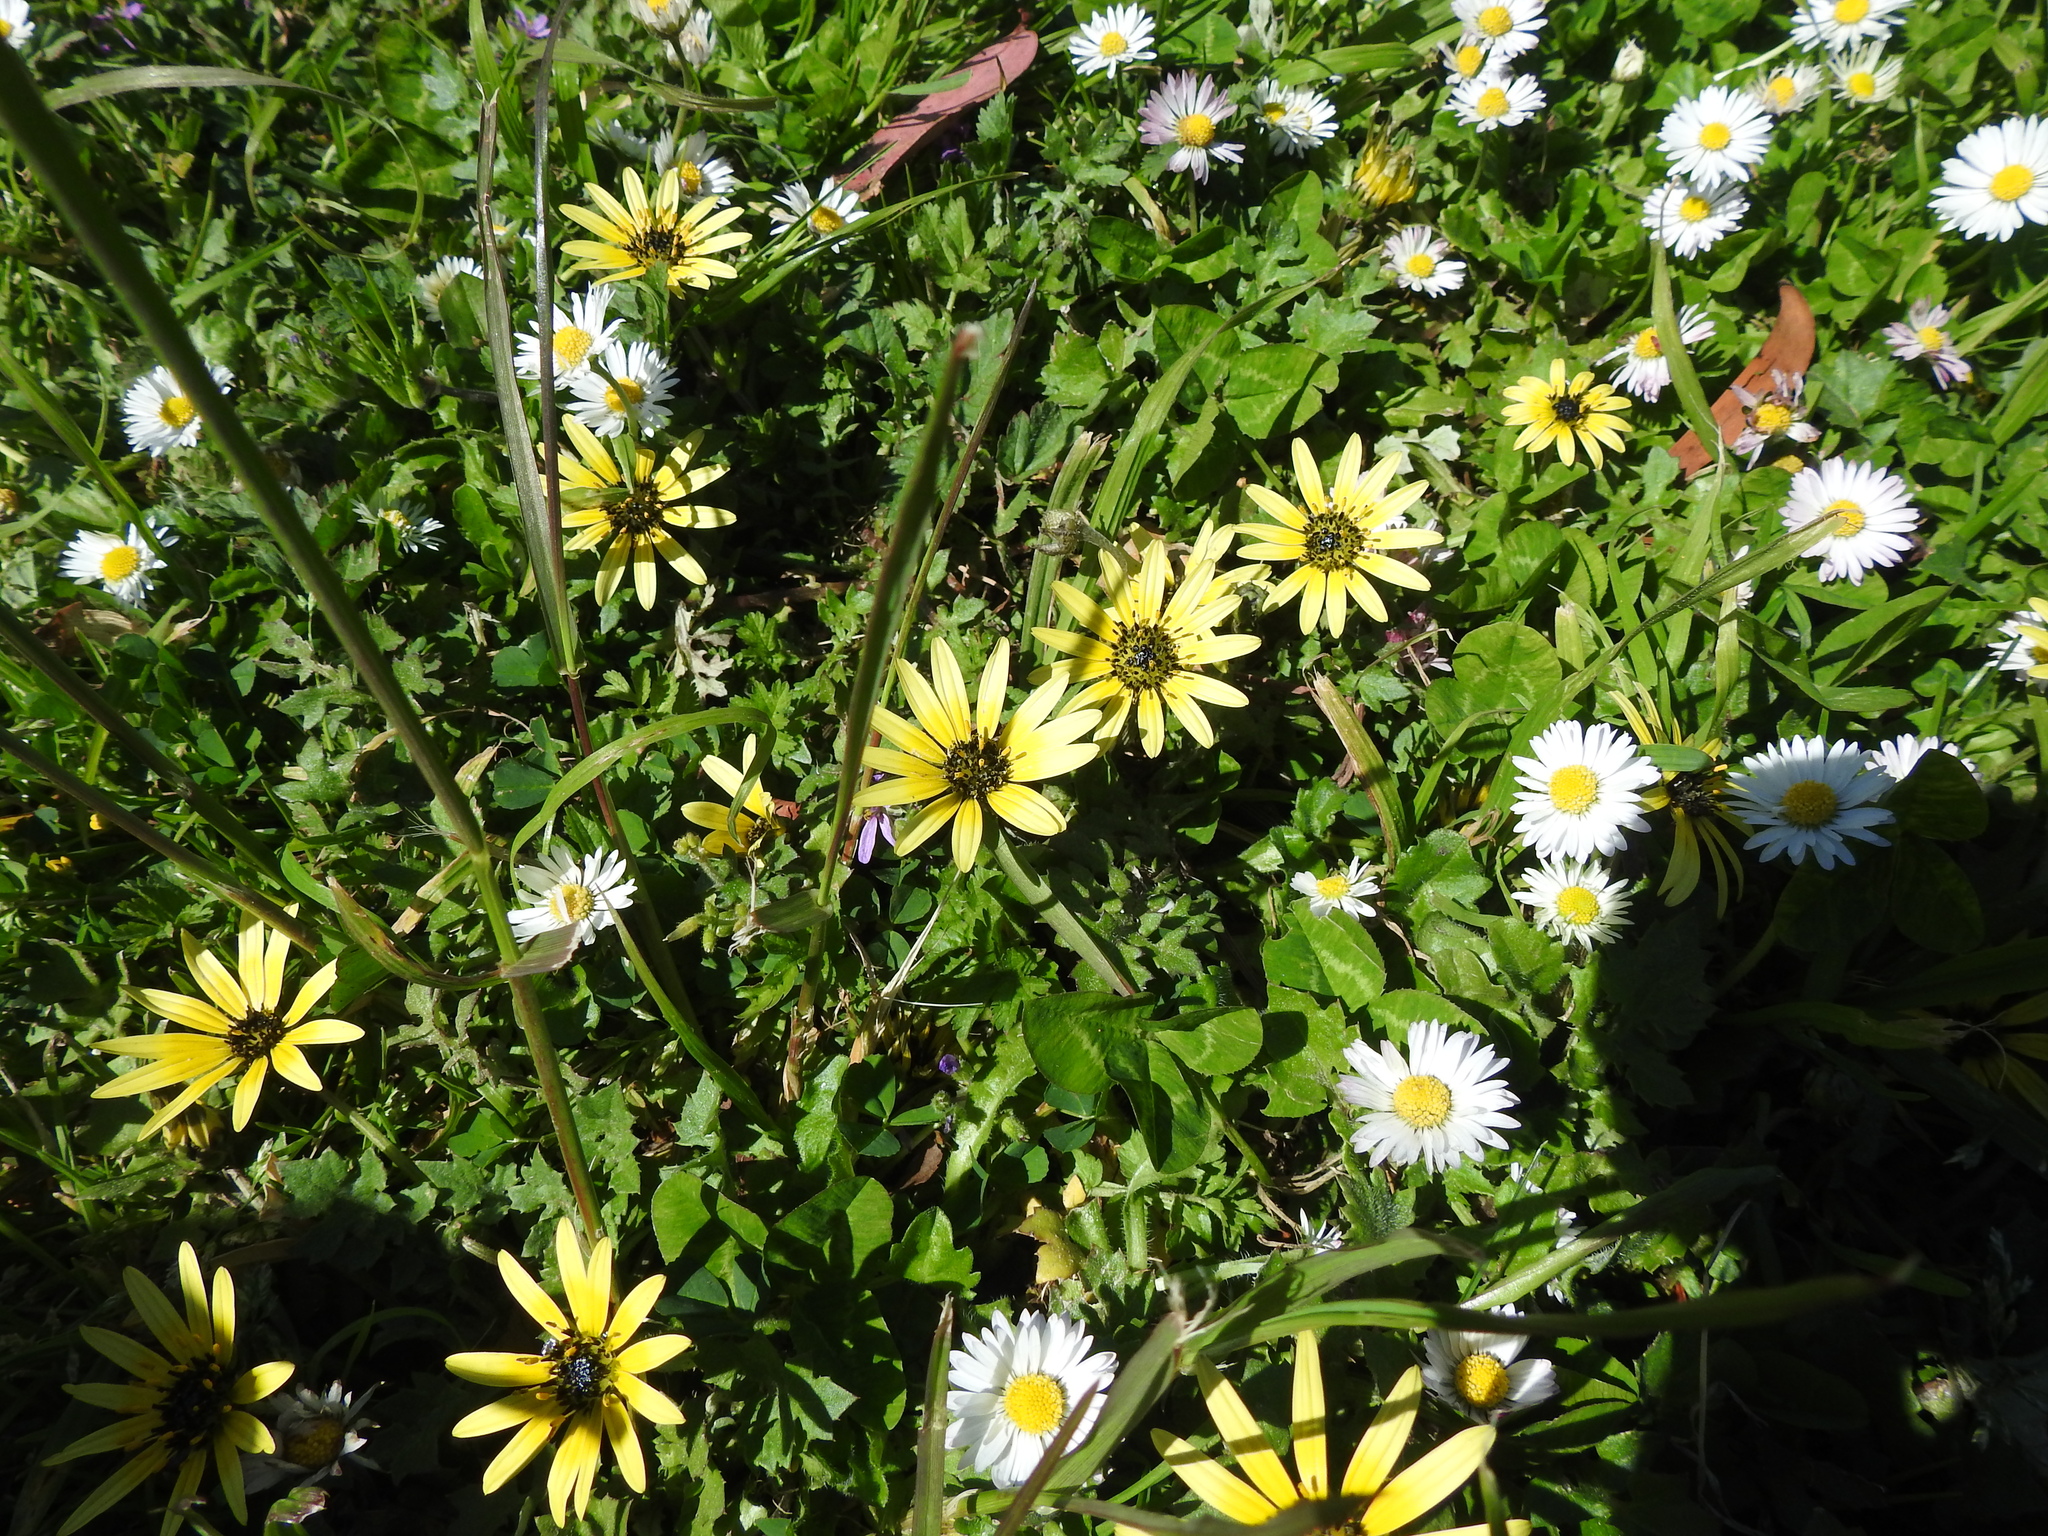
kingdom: Plantae
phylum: Tracheophyta
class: Magnoliopsida
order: Asterales
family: Asteraceae
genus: Arctotheca
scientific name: Arctotheca calendula
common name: Capeweed
